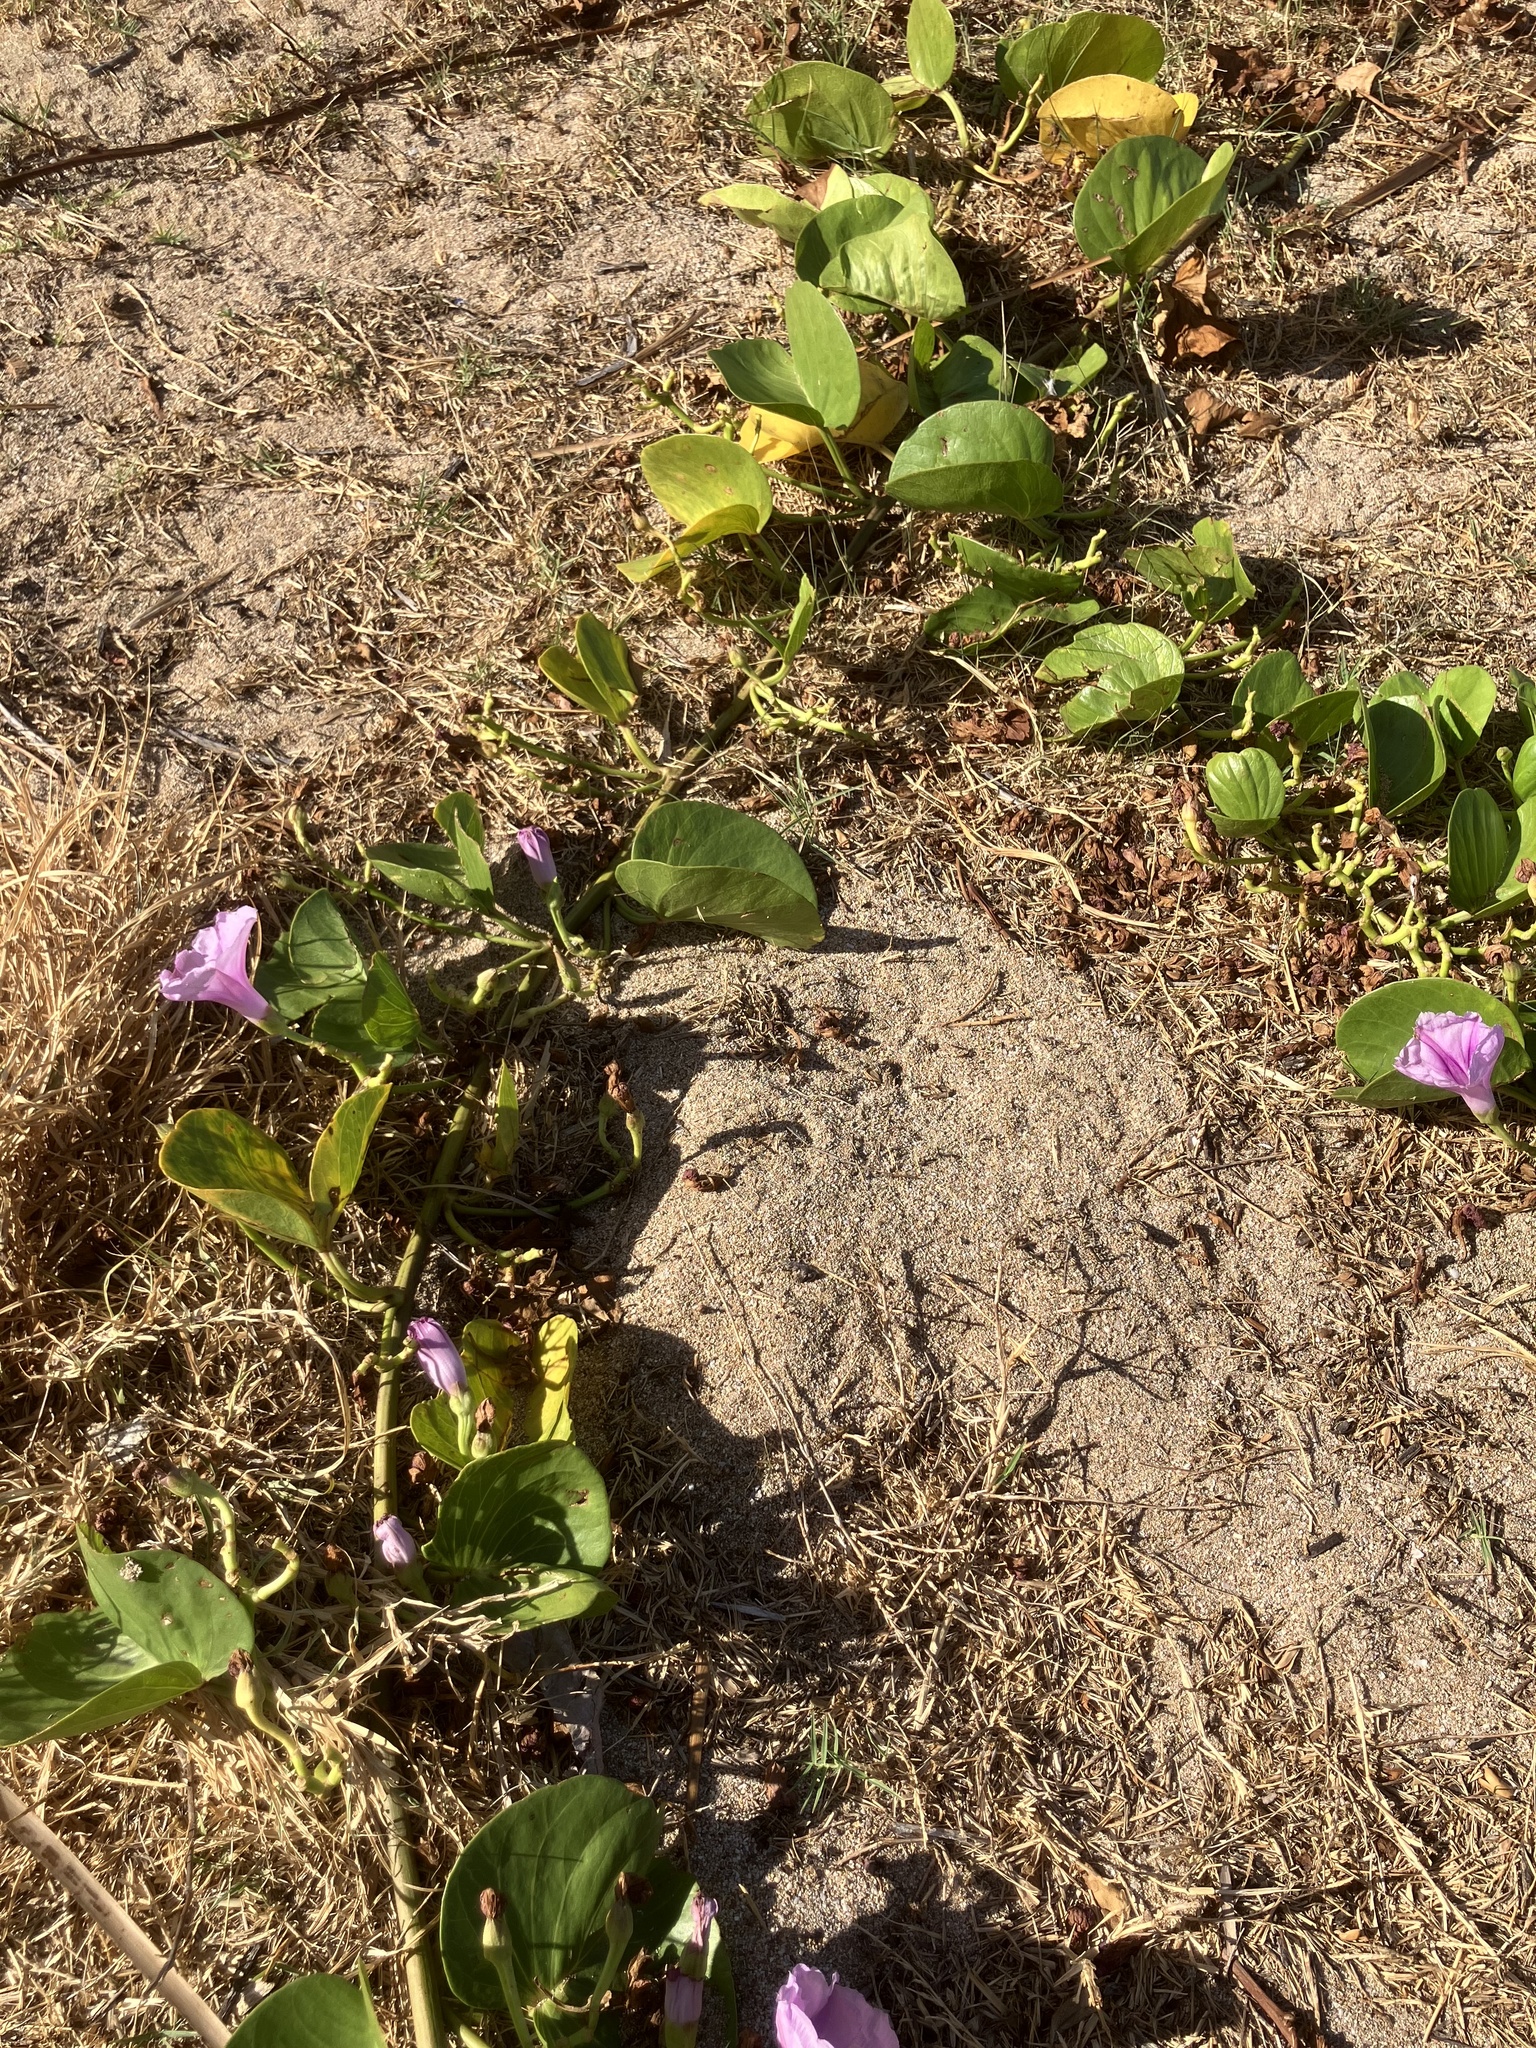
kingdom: Plantae
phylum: Tracheophyta
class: Magnoliopsida
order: Solanales
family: Convolvulaceae
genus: Ipomoea
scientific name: Ipomoea pes-caprae
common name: Beach morning glory
